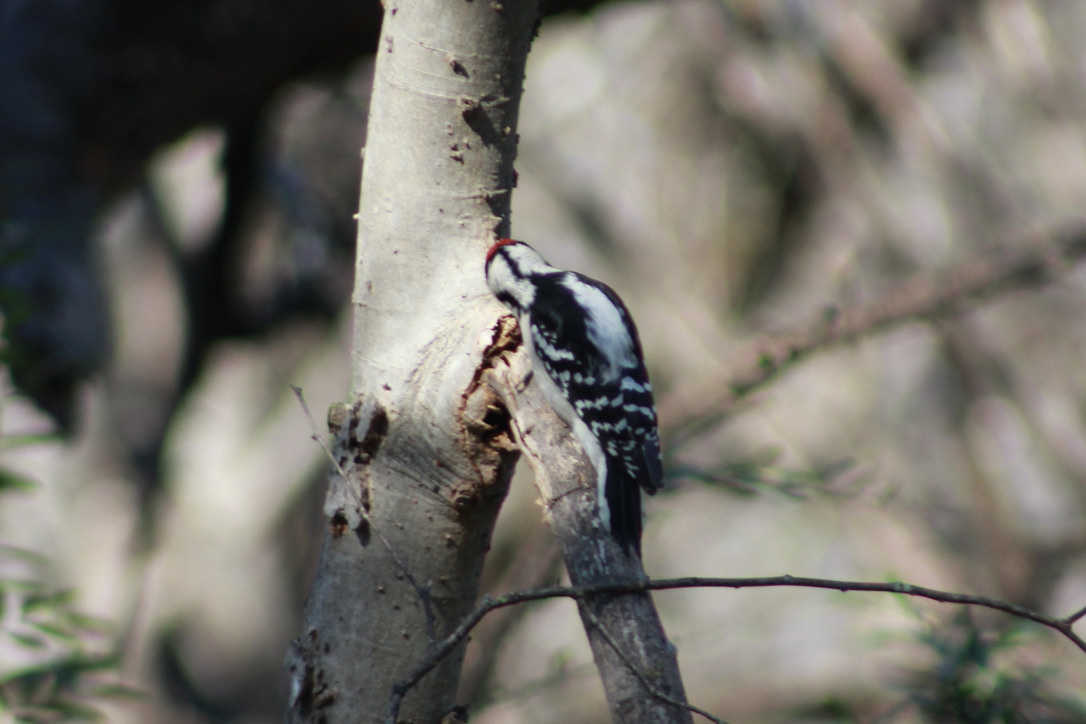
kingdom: Animalia
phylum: Chordata
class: Aves
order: Piciformes
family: Picidae
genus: Dryobates
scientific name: Dryobates pubescens
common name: Downy woodpecker
